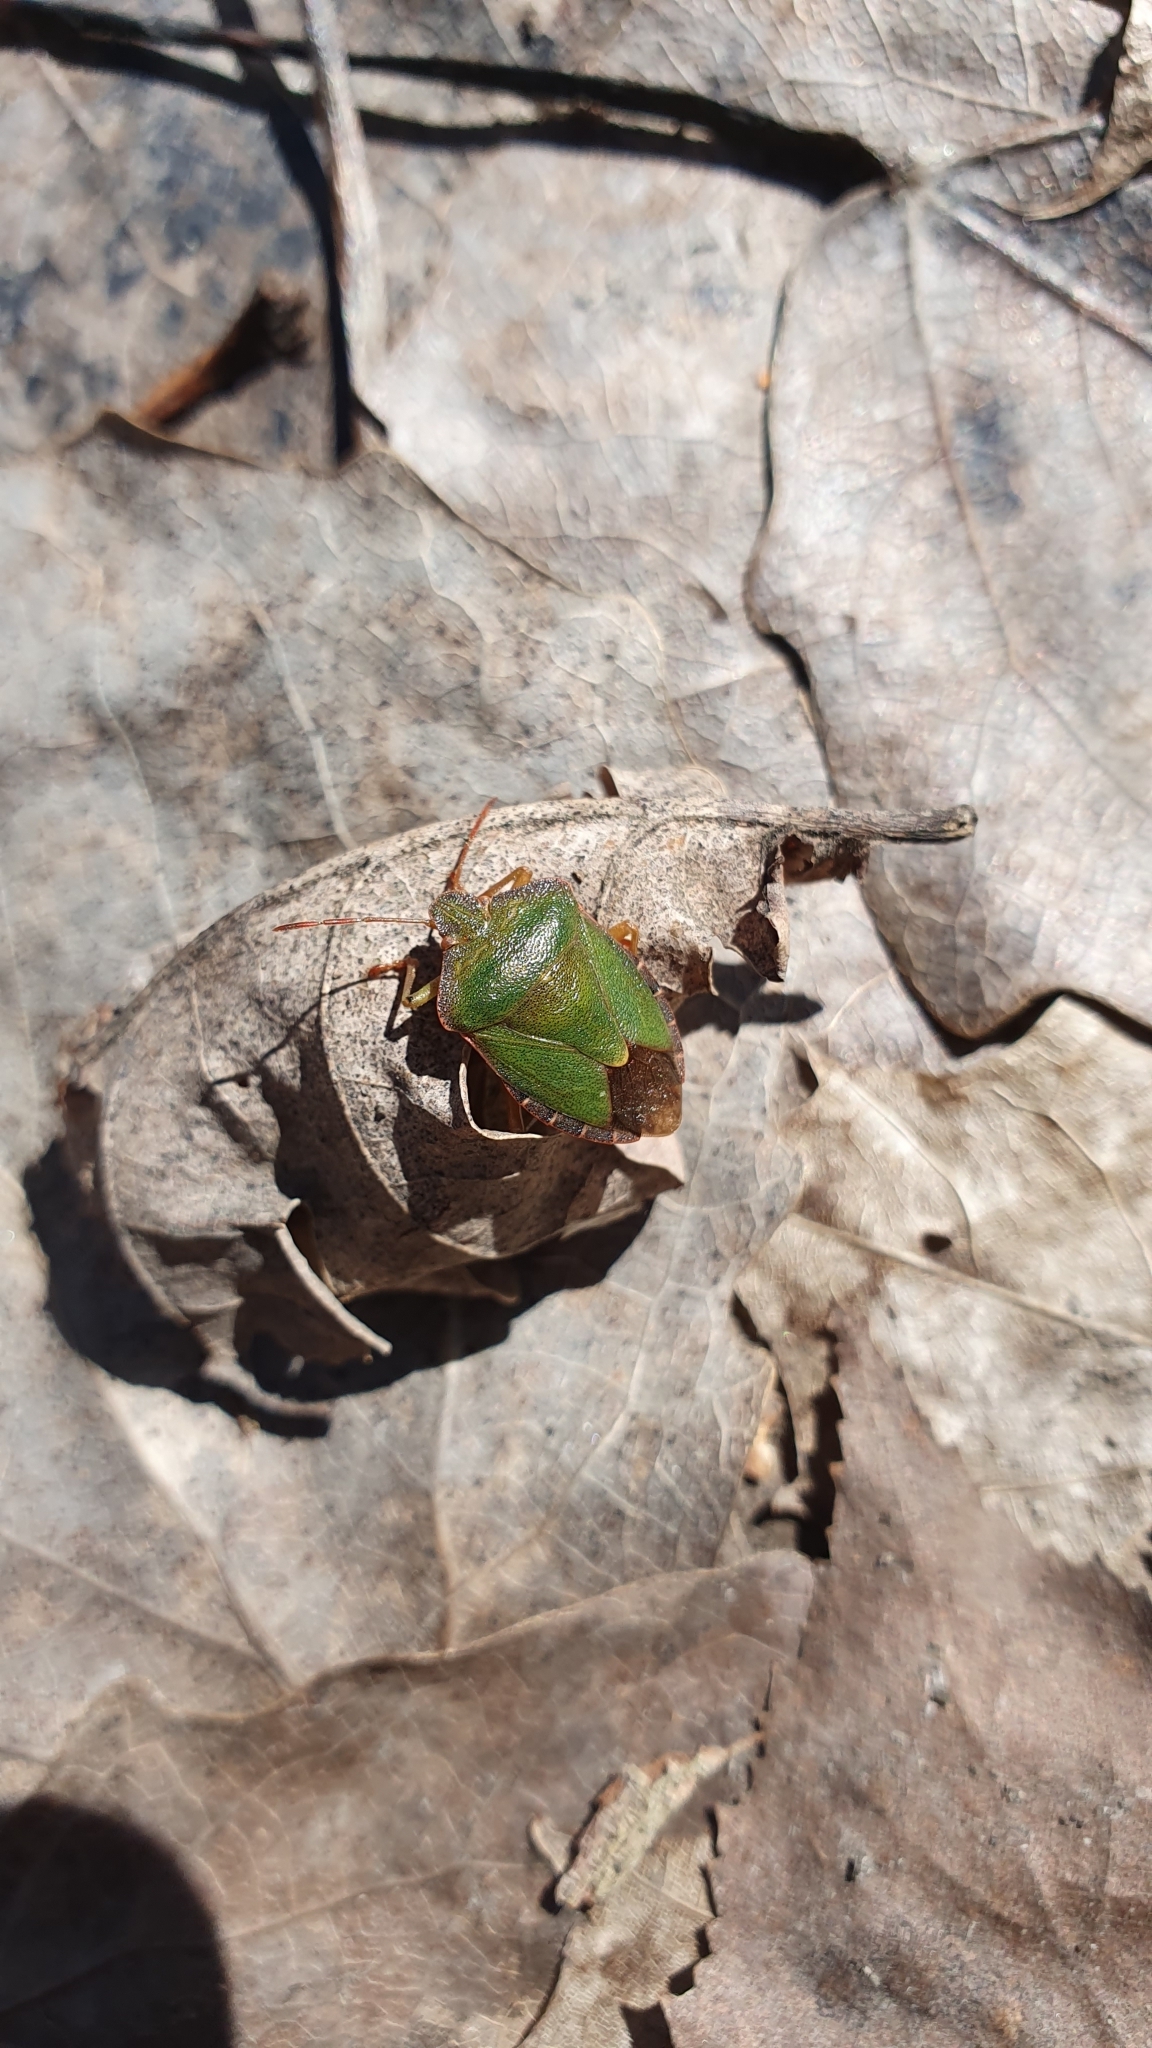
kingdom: Animalia
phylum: Arthropoda
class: Insecta
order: Hemiptera
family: Pentatomidae
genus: Palomena
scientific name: Palomena prasina
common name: Green shieldbug
